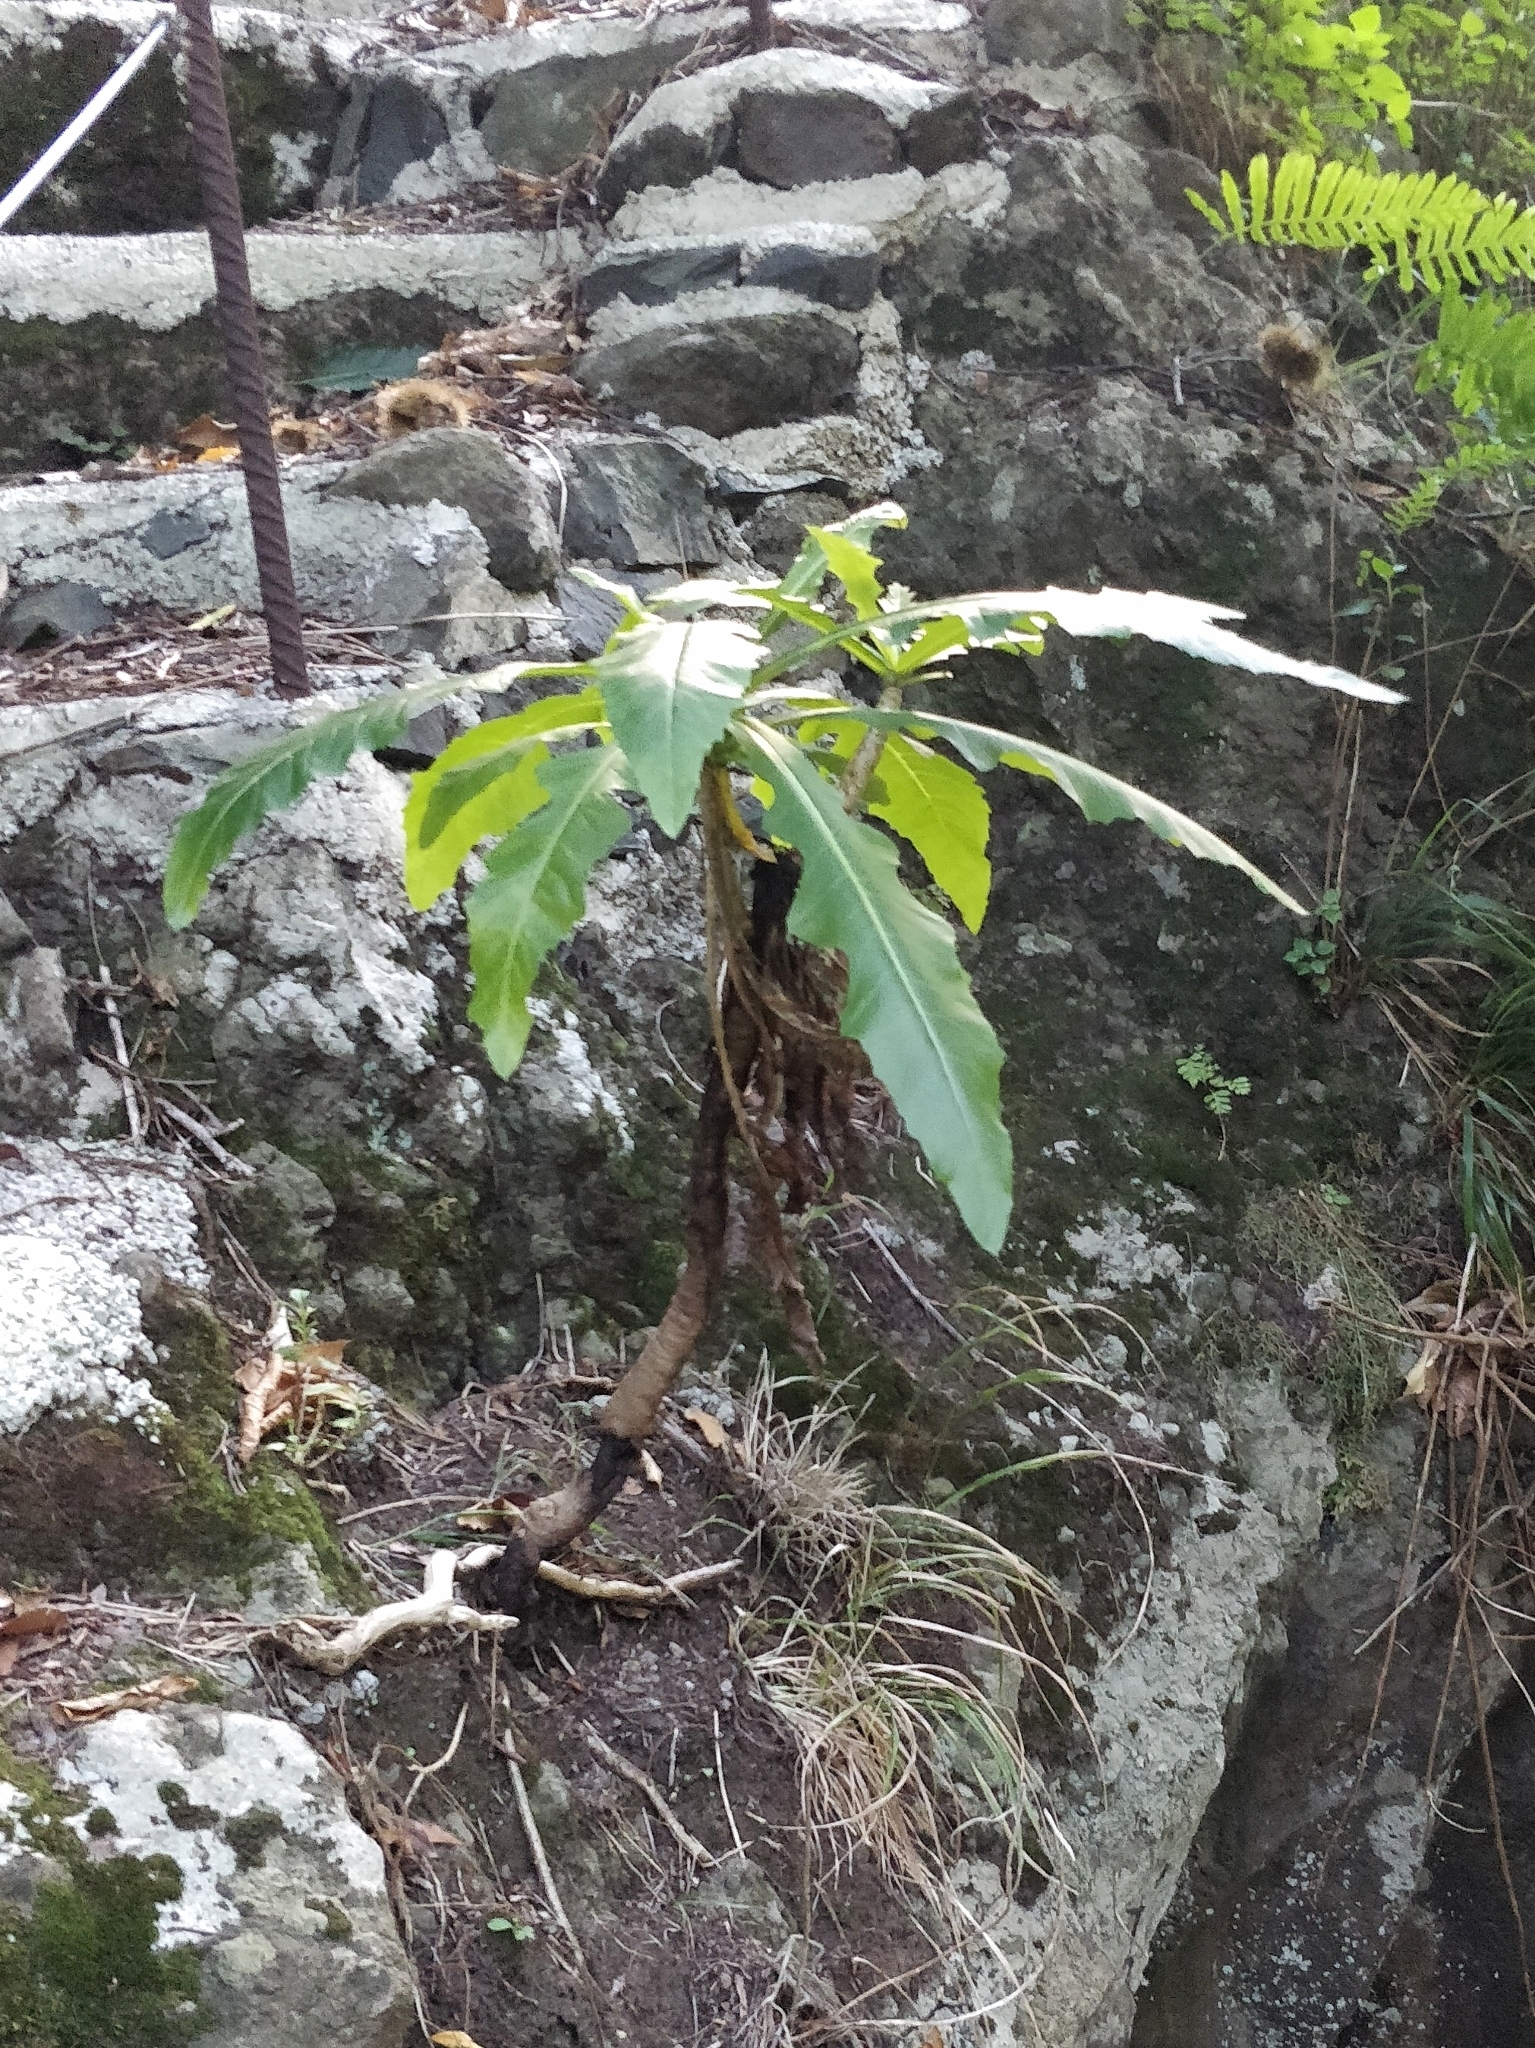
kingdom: Plantae
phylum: Tracheophyta
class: Magnoliopsida
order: Asterales
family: Asteraceae
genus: Sonchus
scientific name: Sonchus fruticosus
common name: Shrubby sow-thistle
